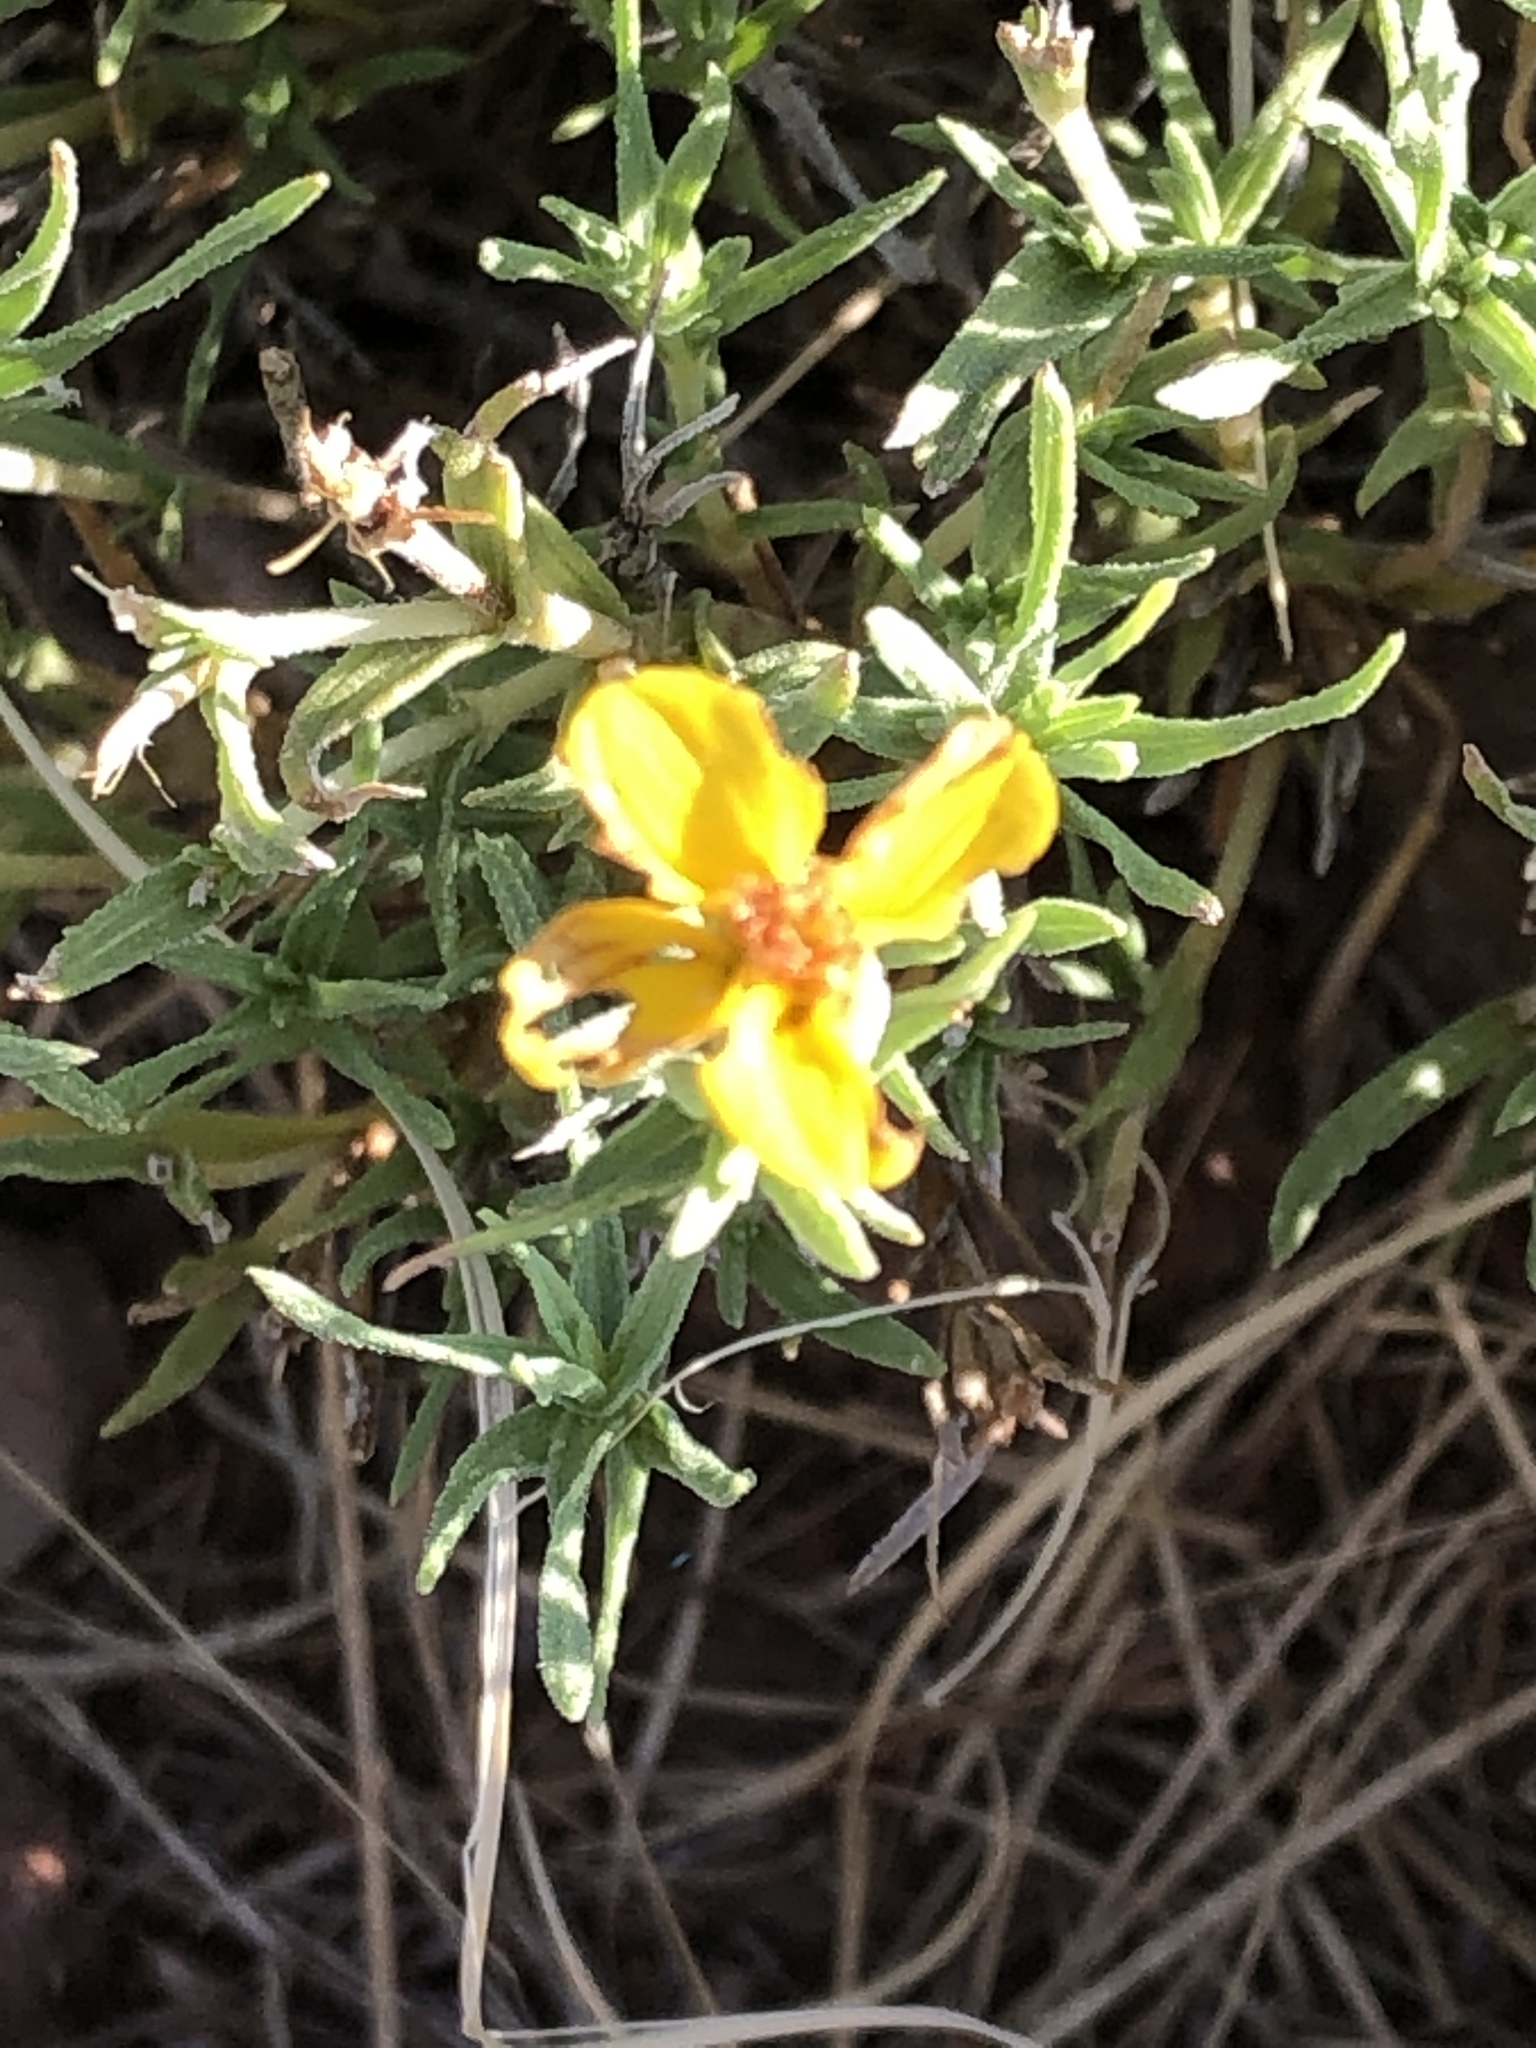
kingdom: Plantae
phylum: Tracheophyta
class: Magnoliopsida
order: Asterales
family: Asteraceae
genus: Zinnia
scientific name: Zinnia grandiflora
